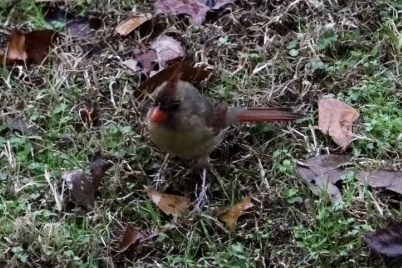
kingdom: Animalia
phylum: Chordata
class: Aves
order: Passeriformes
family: Cardinalidae
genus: Cardinalis
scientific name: Cardinalis cardinalis
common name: Northern cardinal
